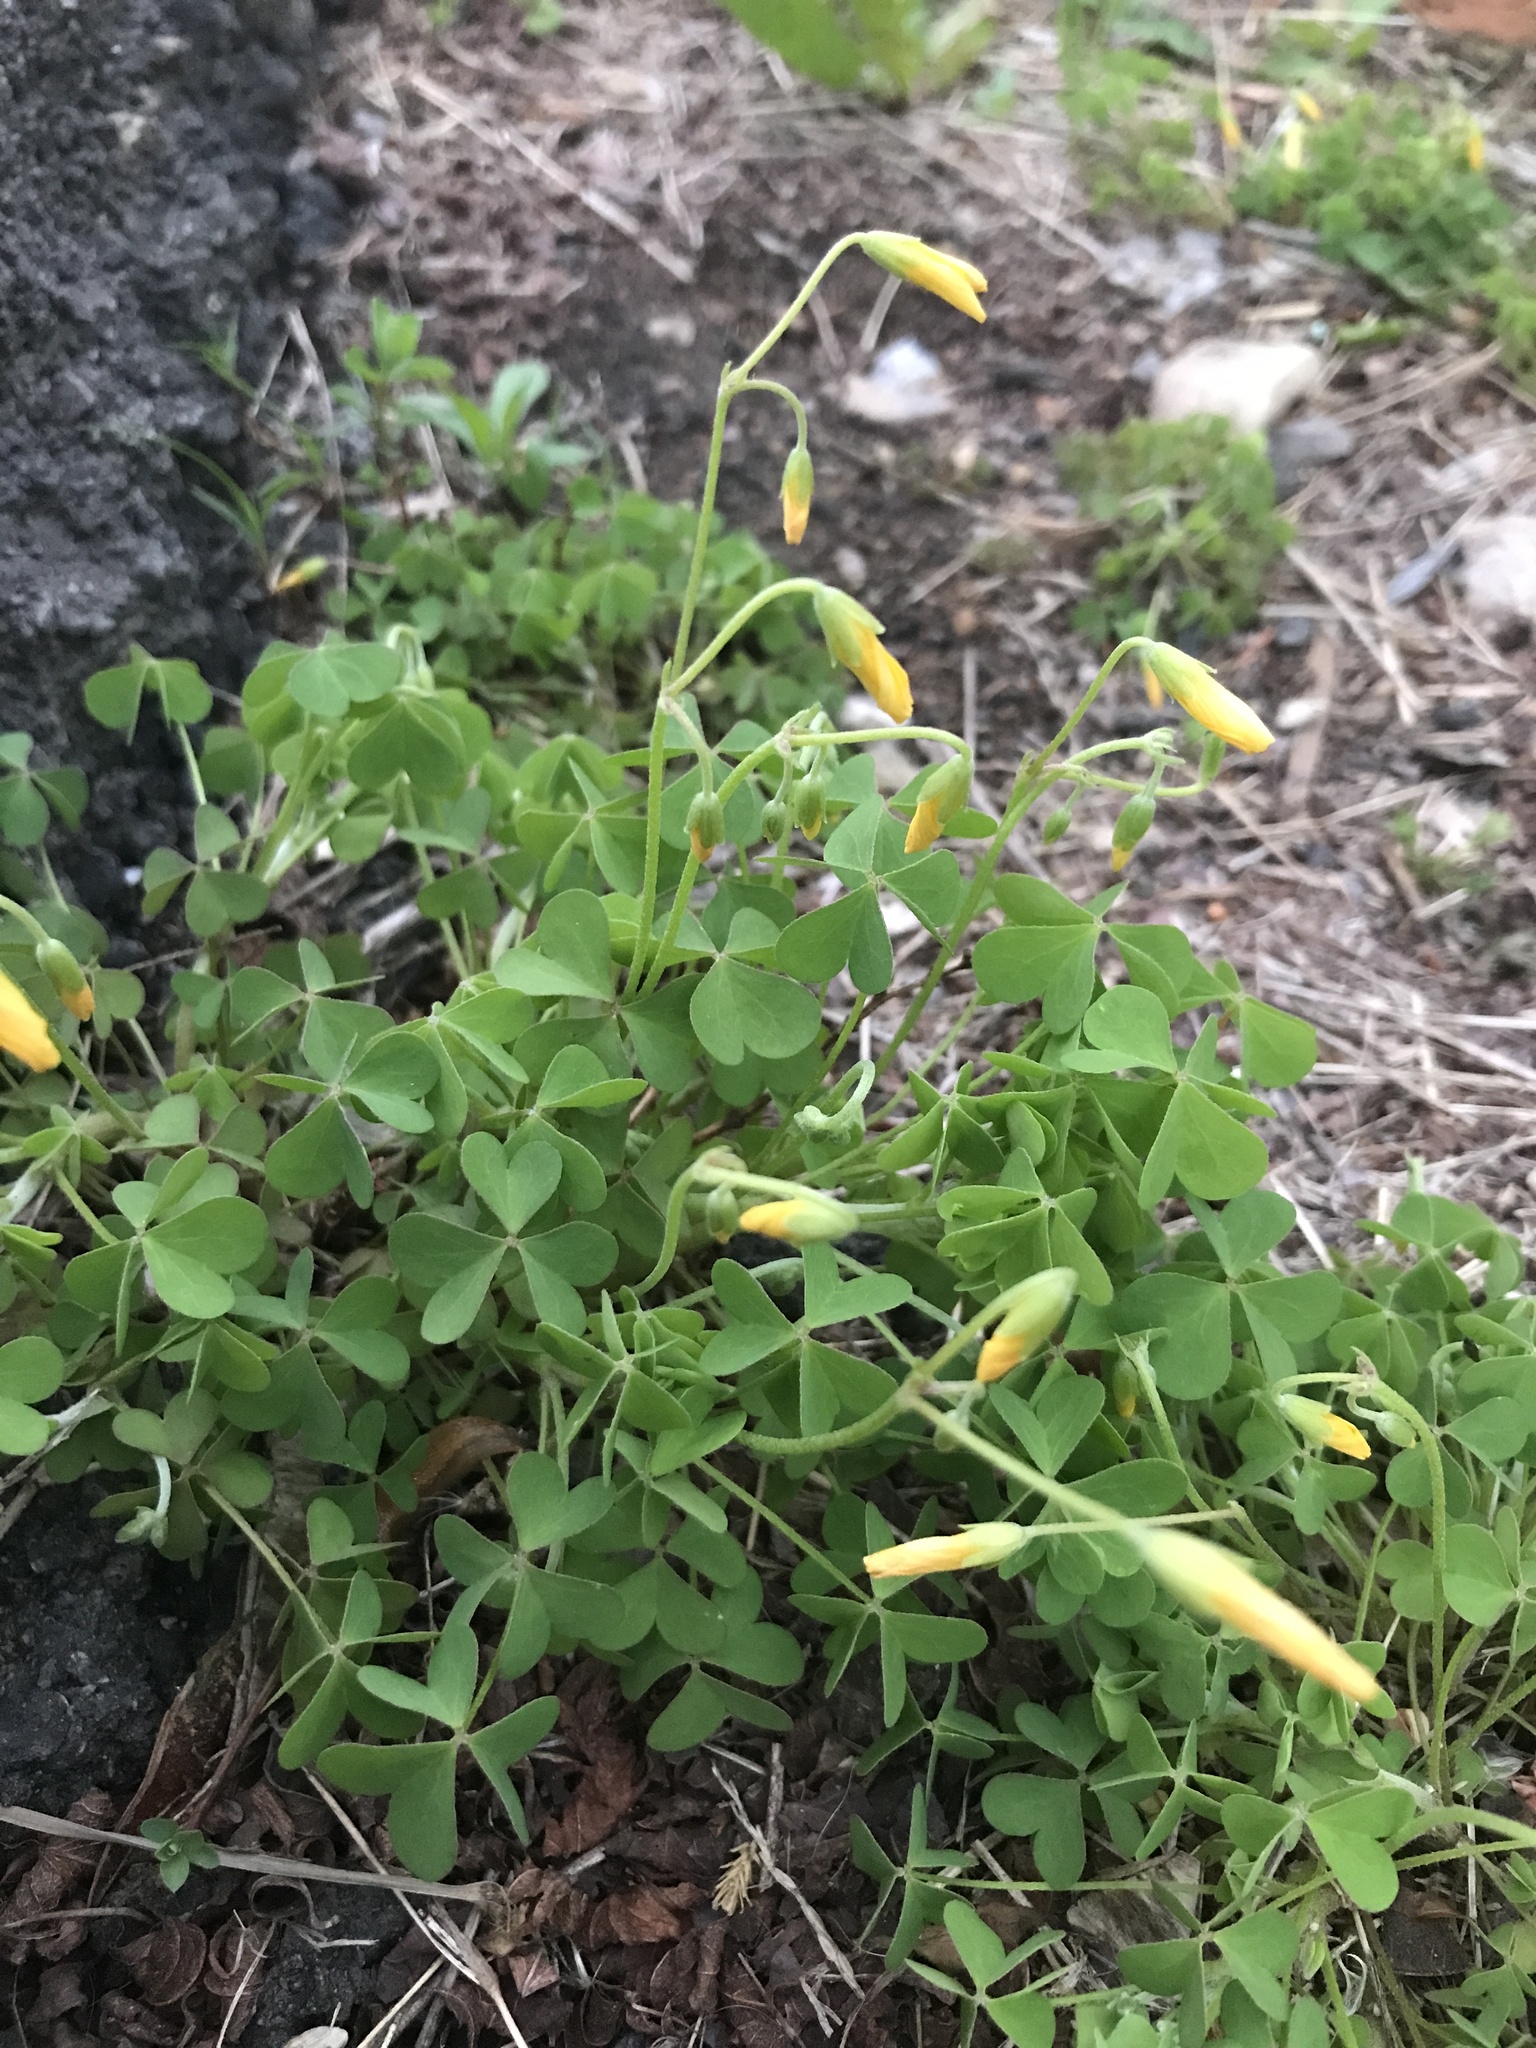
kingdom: Plantae
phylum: Tracheophyta
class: Magnoliopsida
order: Oxalidales
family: Oxalidaceae
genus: Oxalis
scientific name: Oxalis dillenii
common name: Sussex yellow-sorrel
